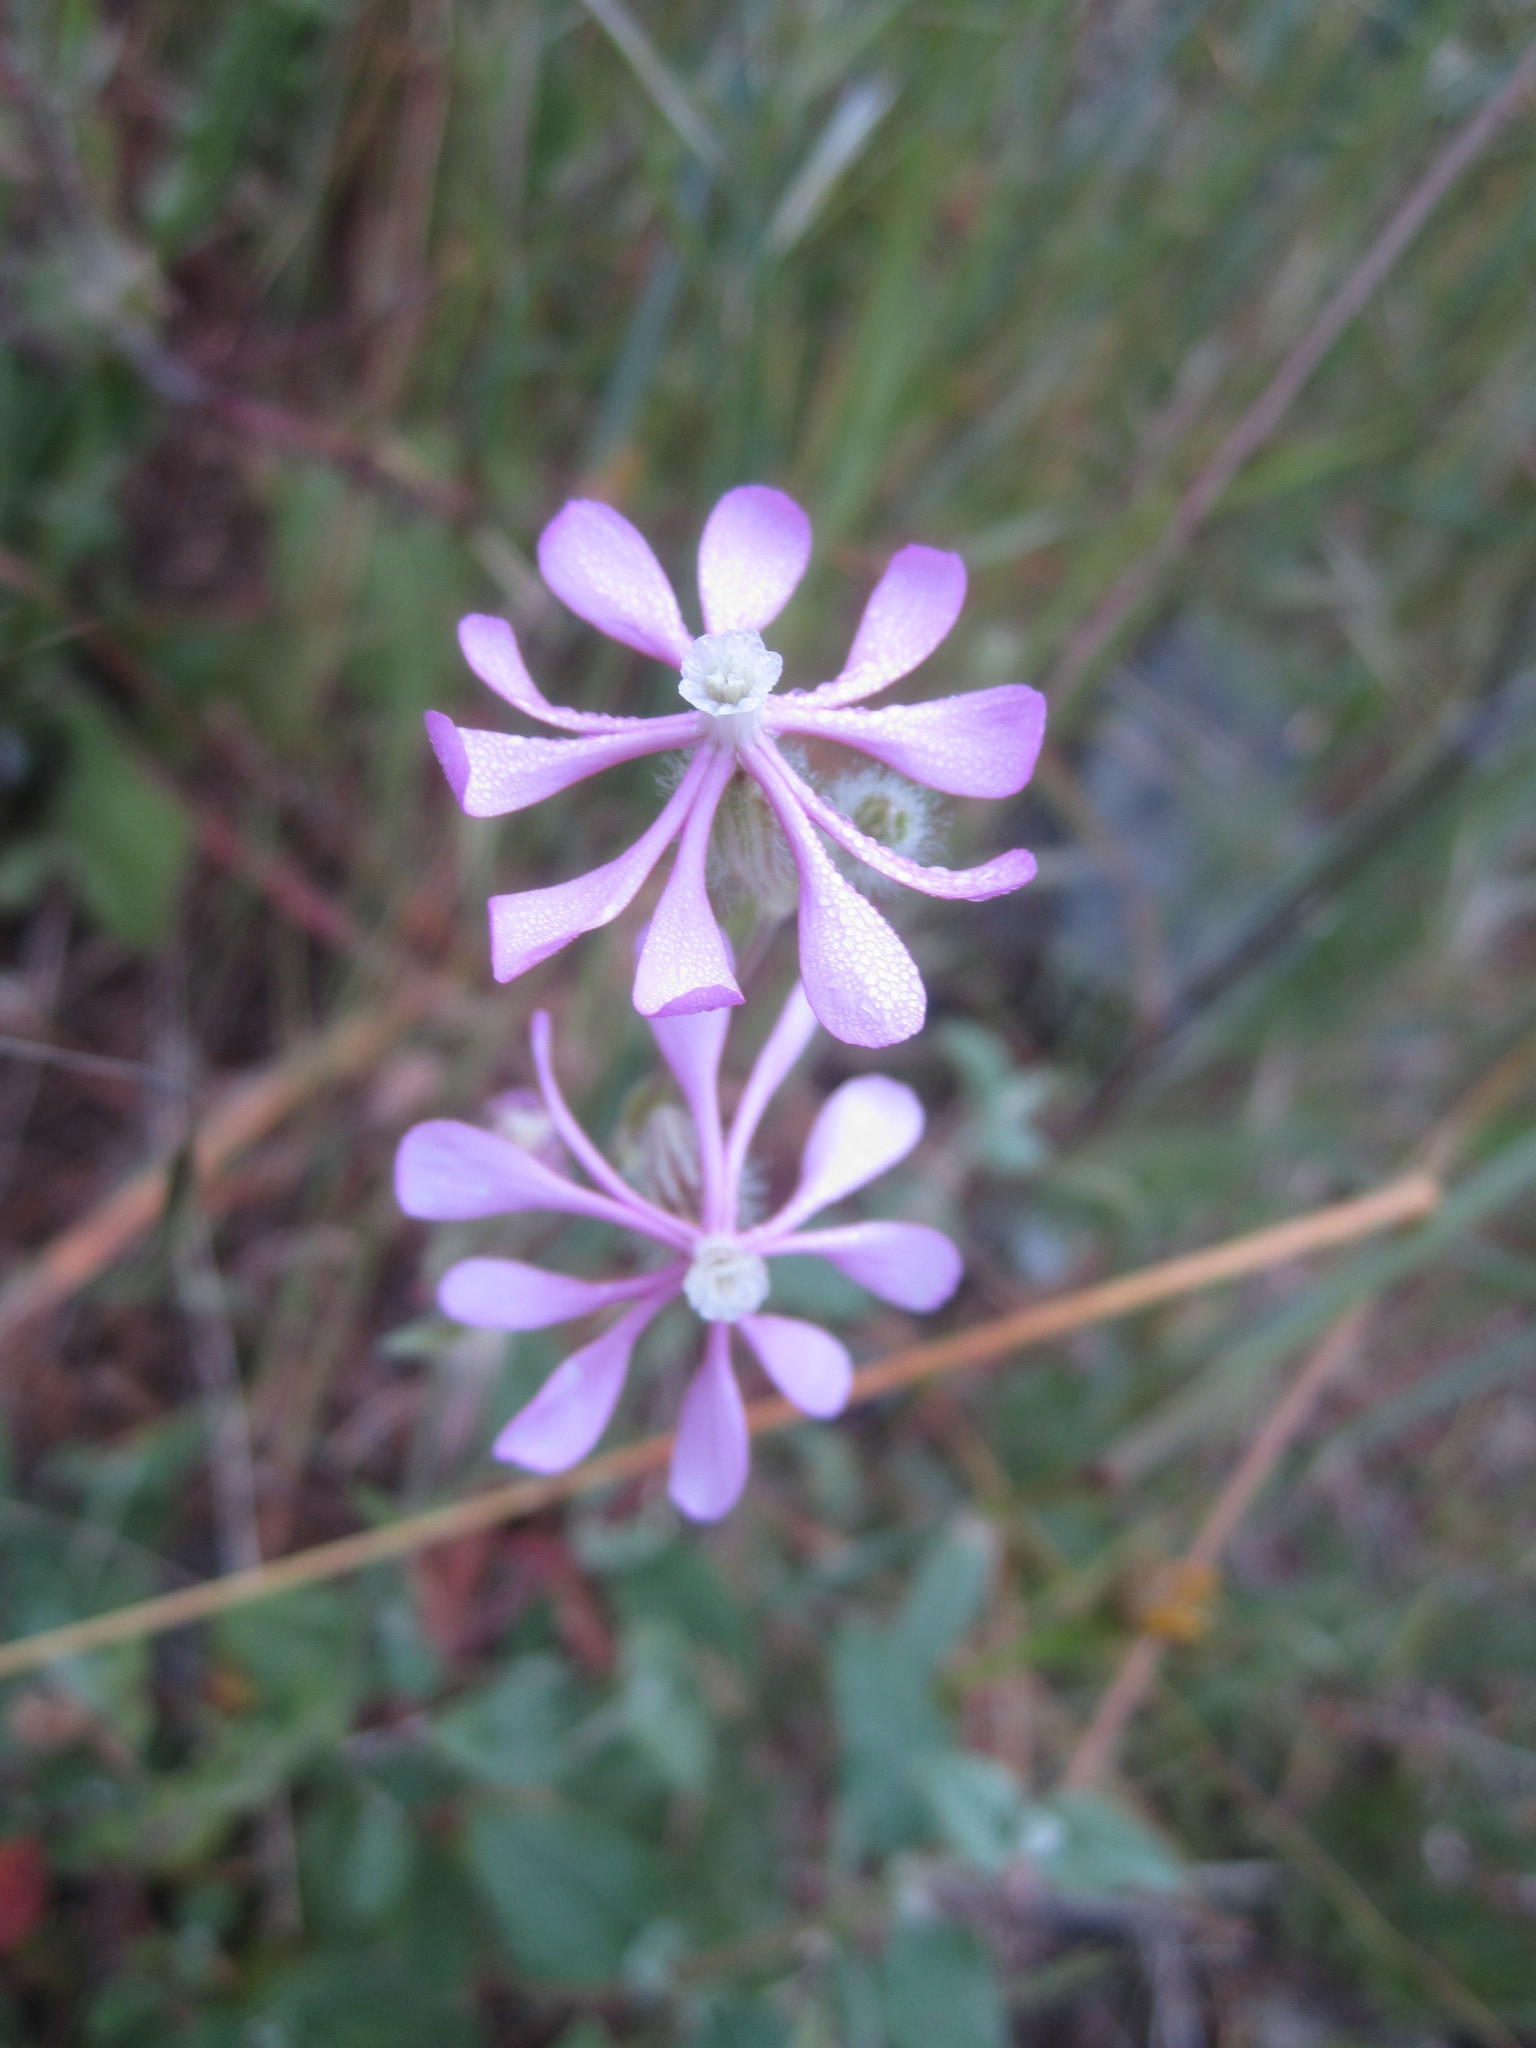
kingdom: Plantae
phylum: Tracheophyta
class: Magnoliopsida
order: Caryophyllales
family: Caryophyllaceae
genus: Silene
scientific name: Silene colorata
